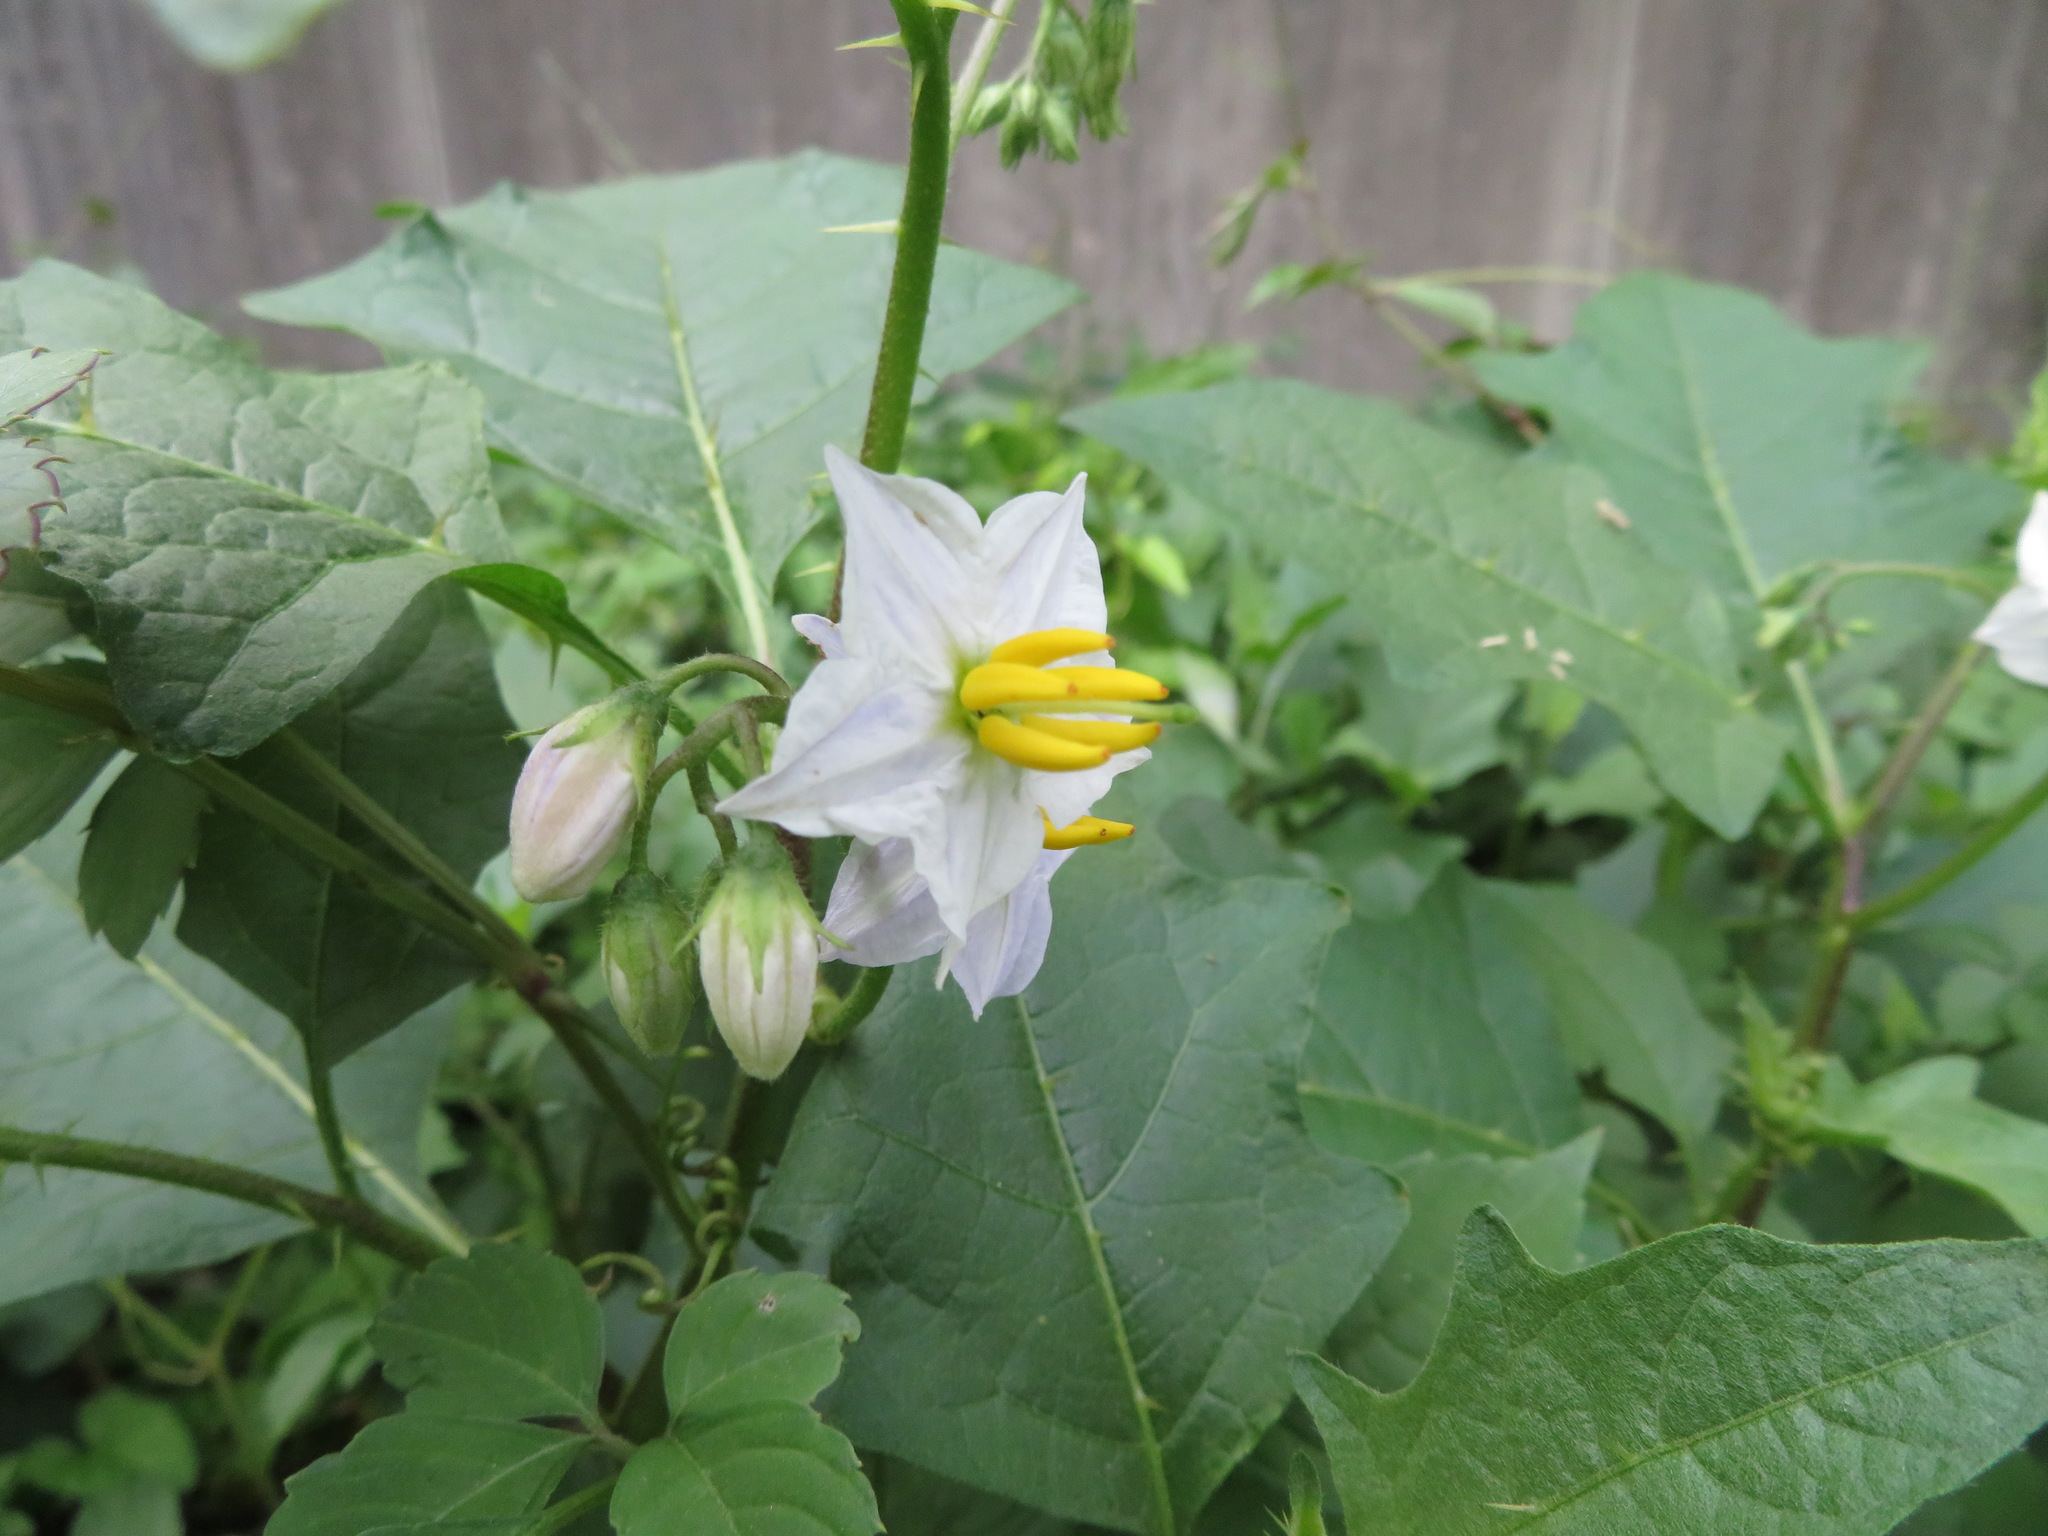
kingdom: Plantae
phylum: Tracheophyta
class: Magnoliopsida
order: Solanales
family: Solanaceae
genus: Solanum
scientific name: Solanum carolinense
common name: Horse-nettle
